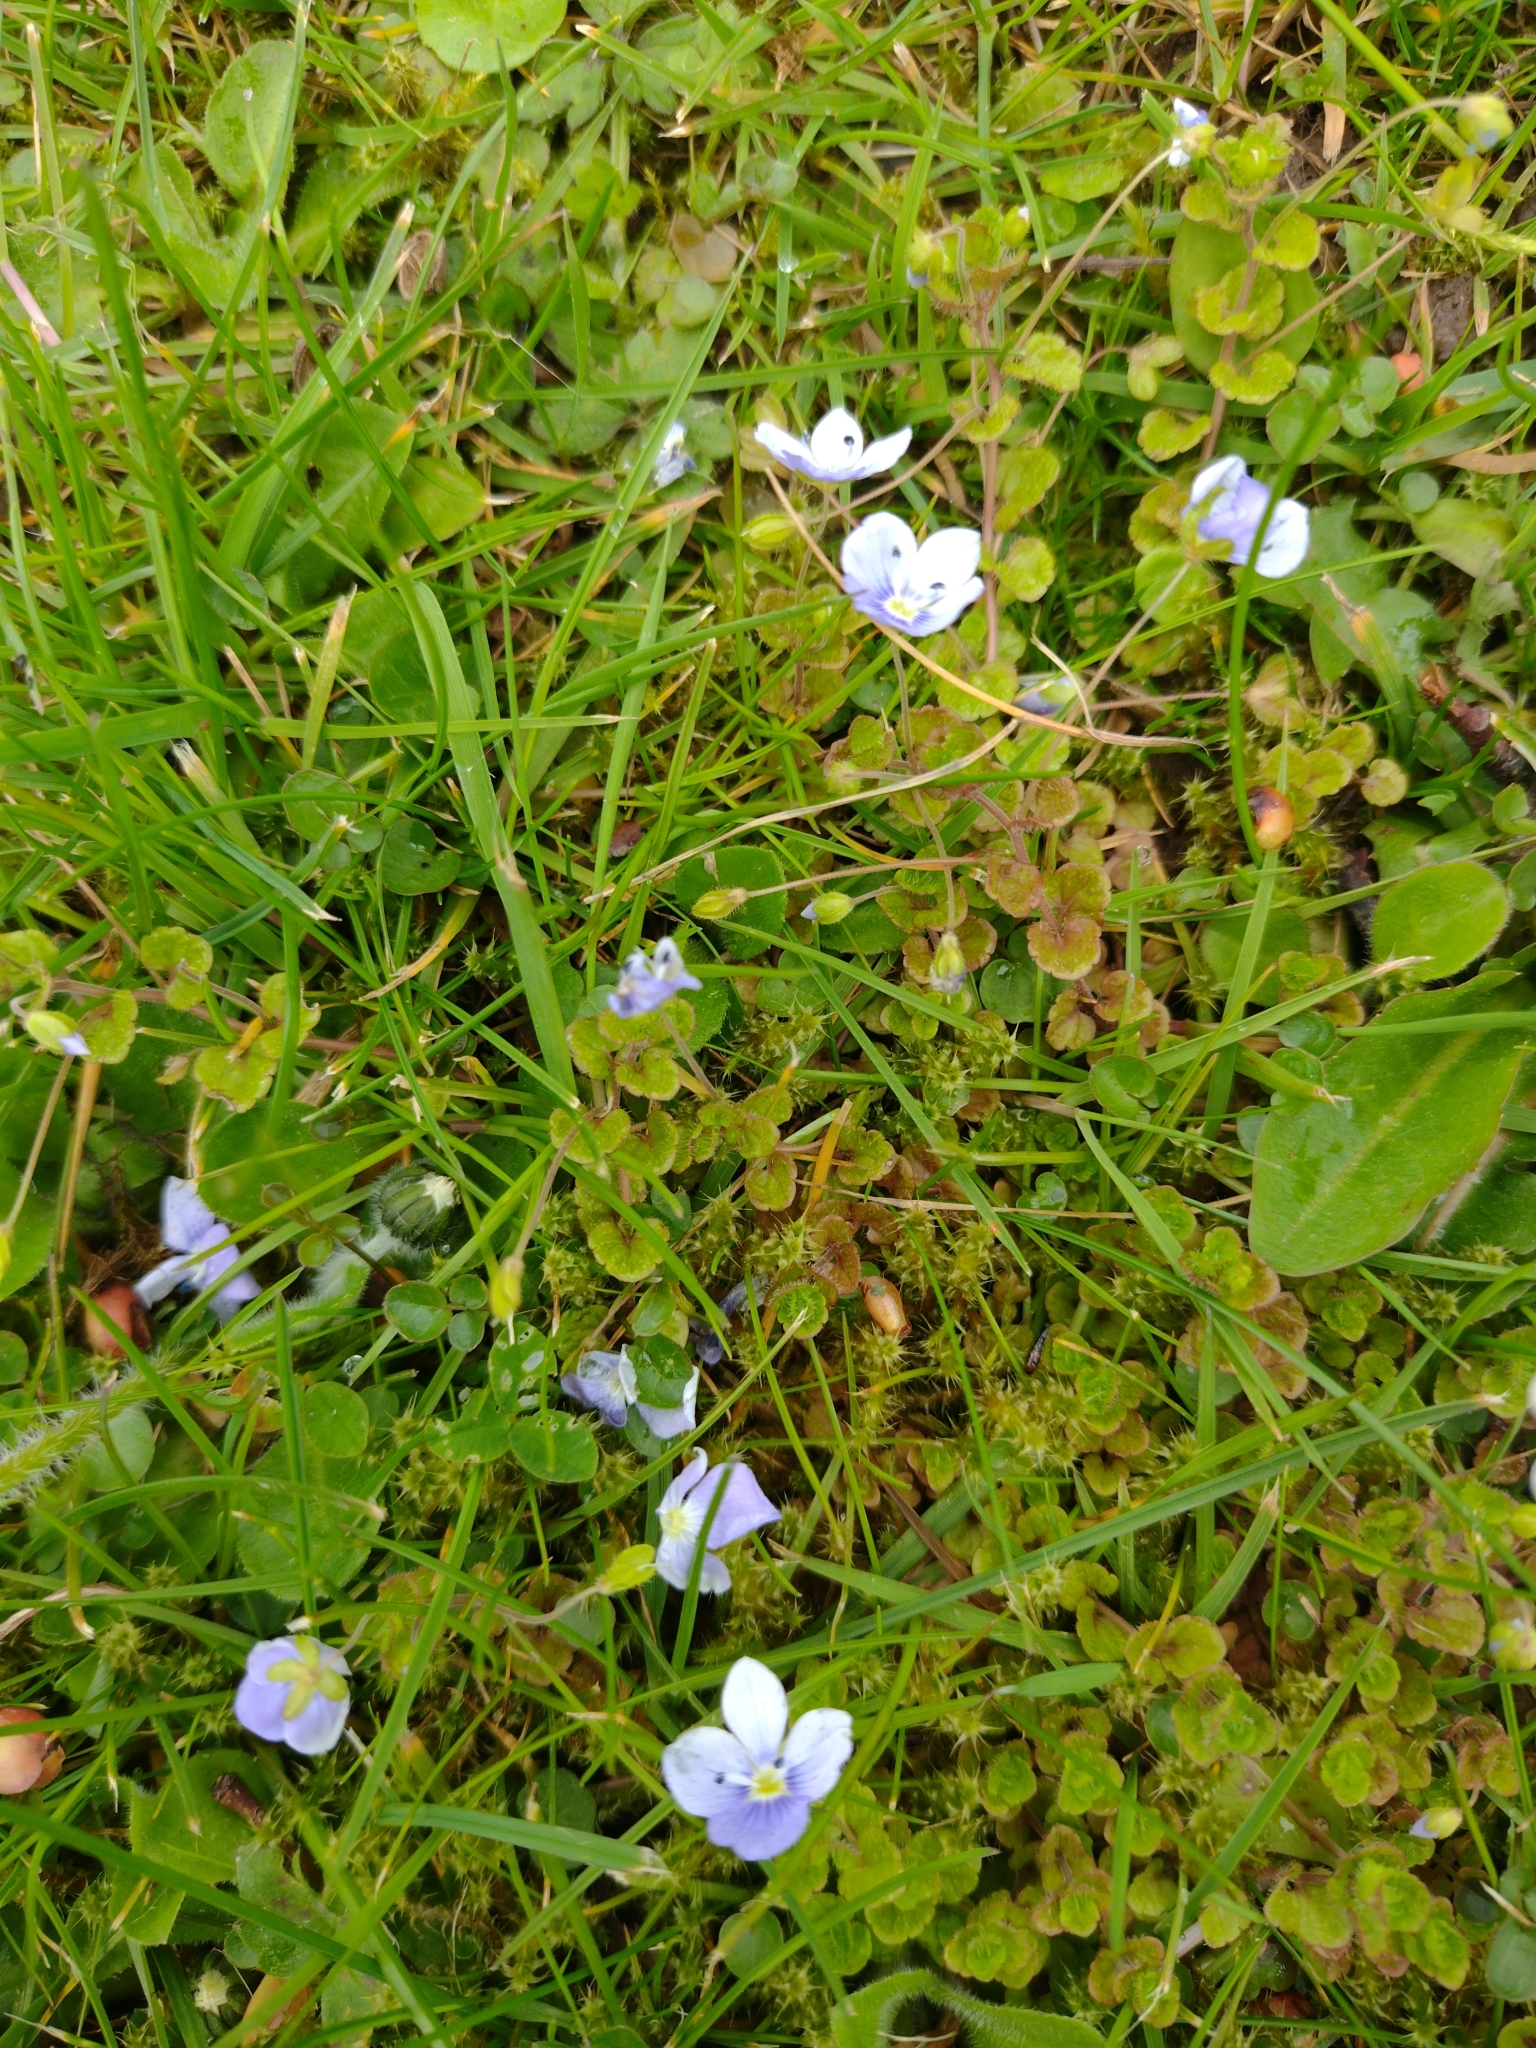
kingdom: Plantae
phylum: Tracheophyta
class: Magnoliopsida
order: Lamiales
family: Plantaginaceae
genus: Veronica
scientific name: Veronica filiformis
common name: Slender speedwell
